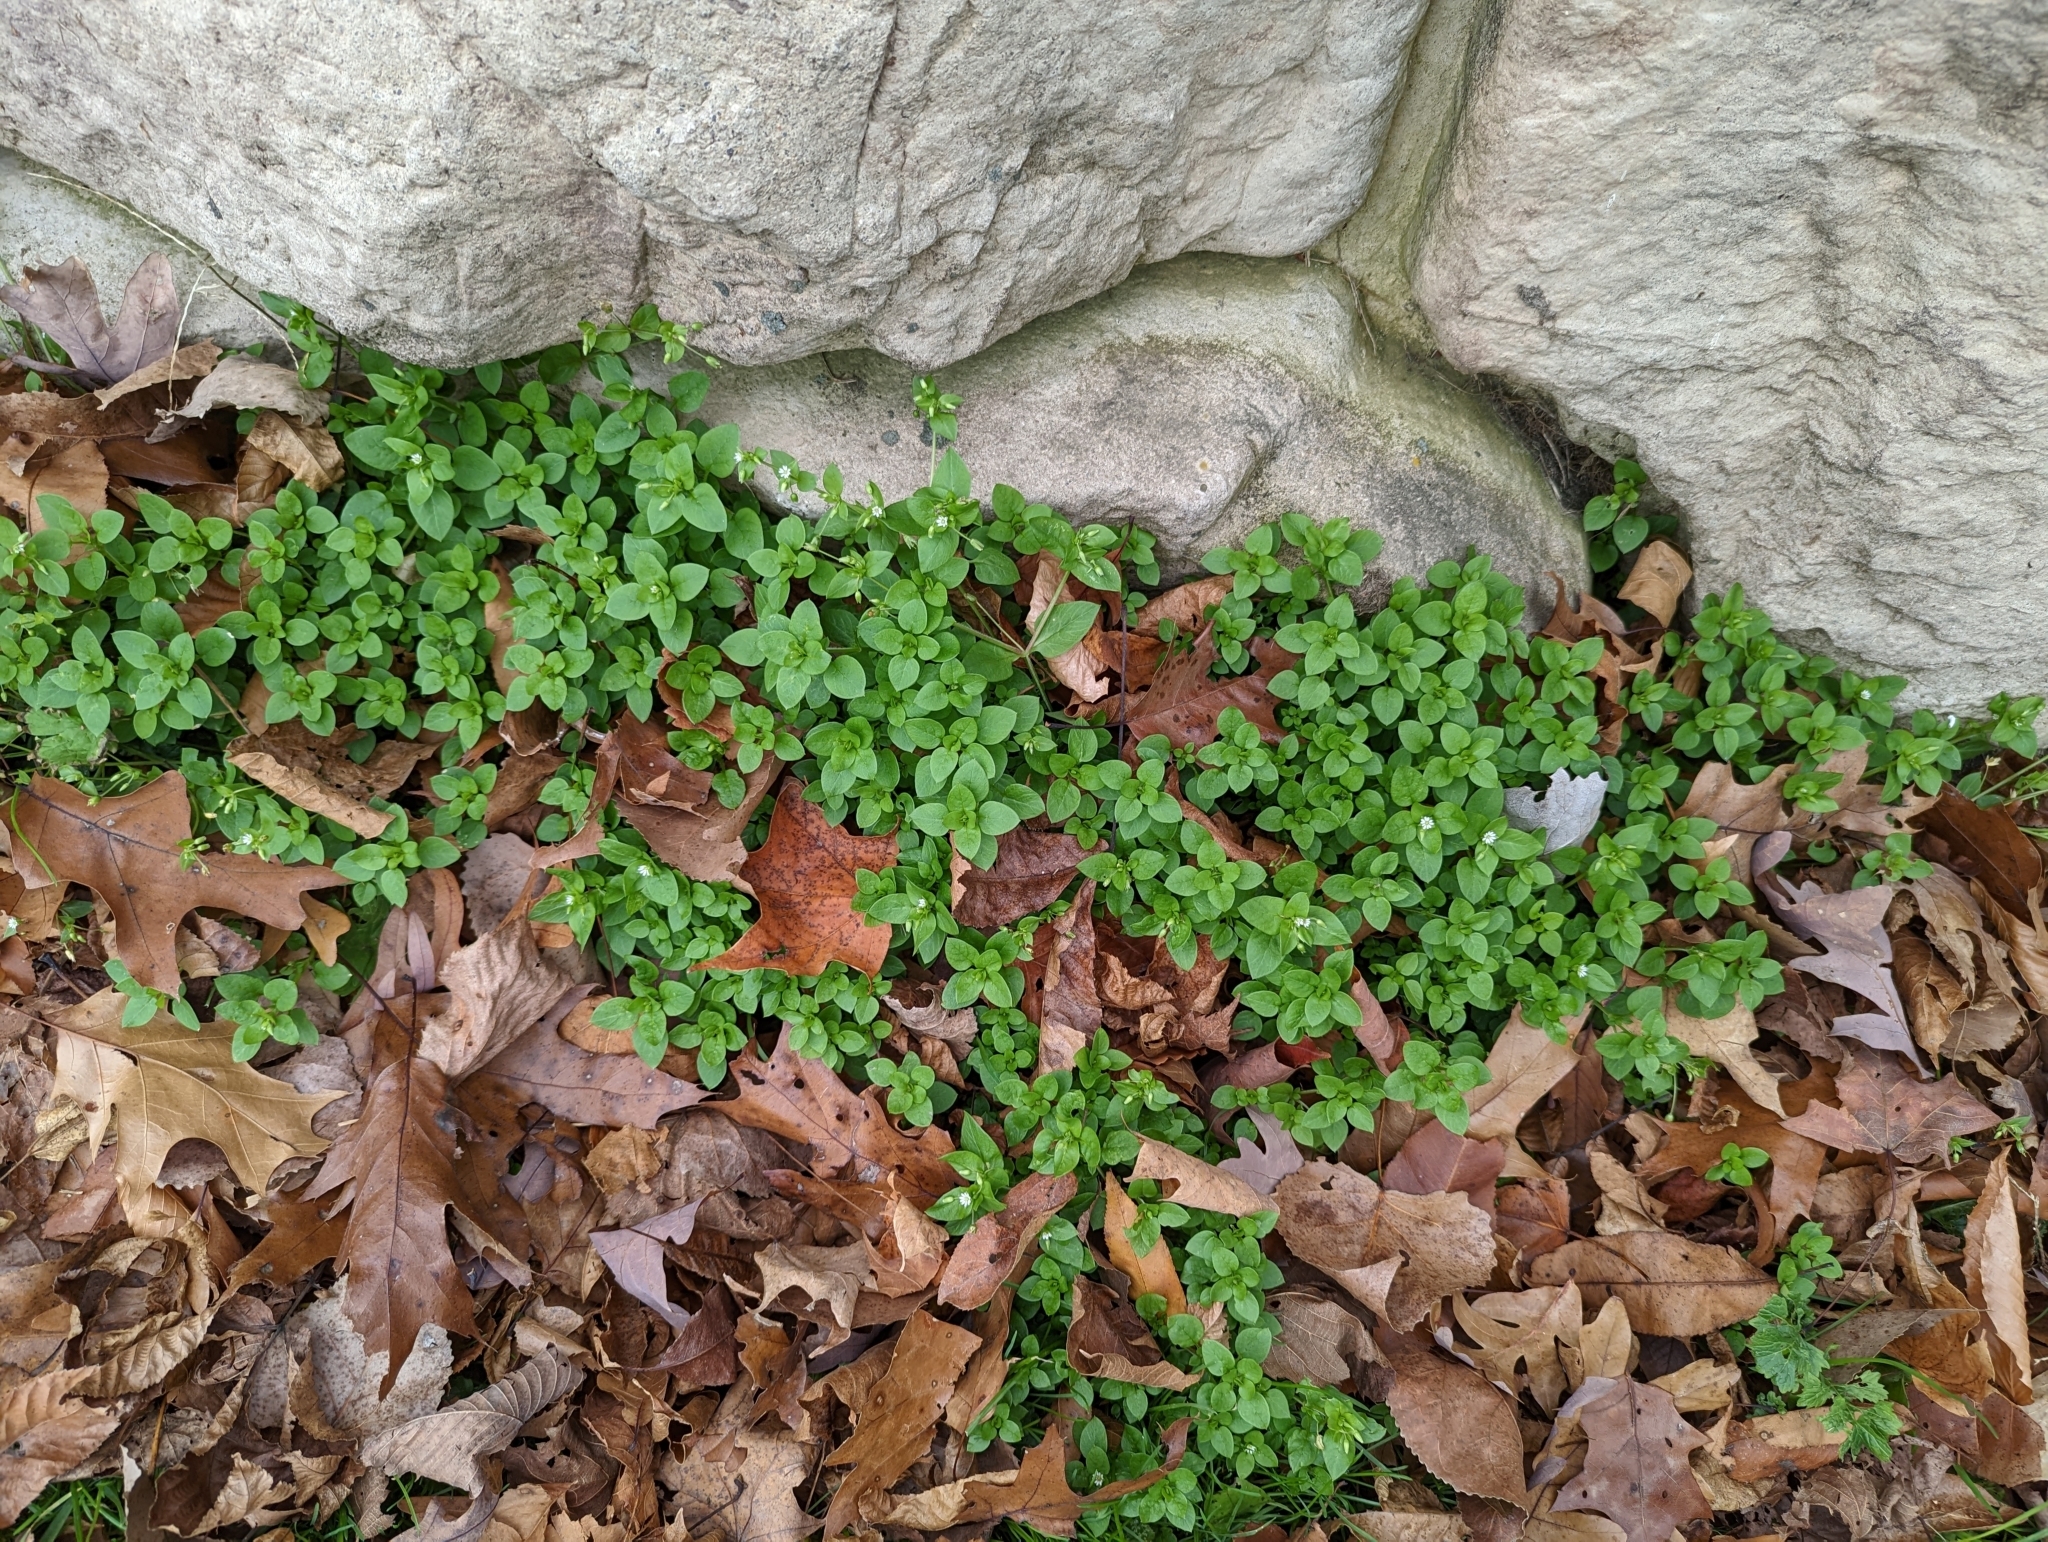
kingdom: Plantae
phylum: Tracheophyta
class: Magnoliopsida
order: Caryophyllales
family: Caryophyllaceae
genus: Stellaria
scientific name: Stellaria media
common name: Common chickweed
